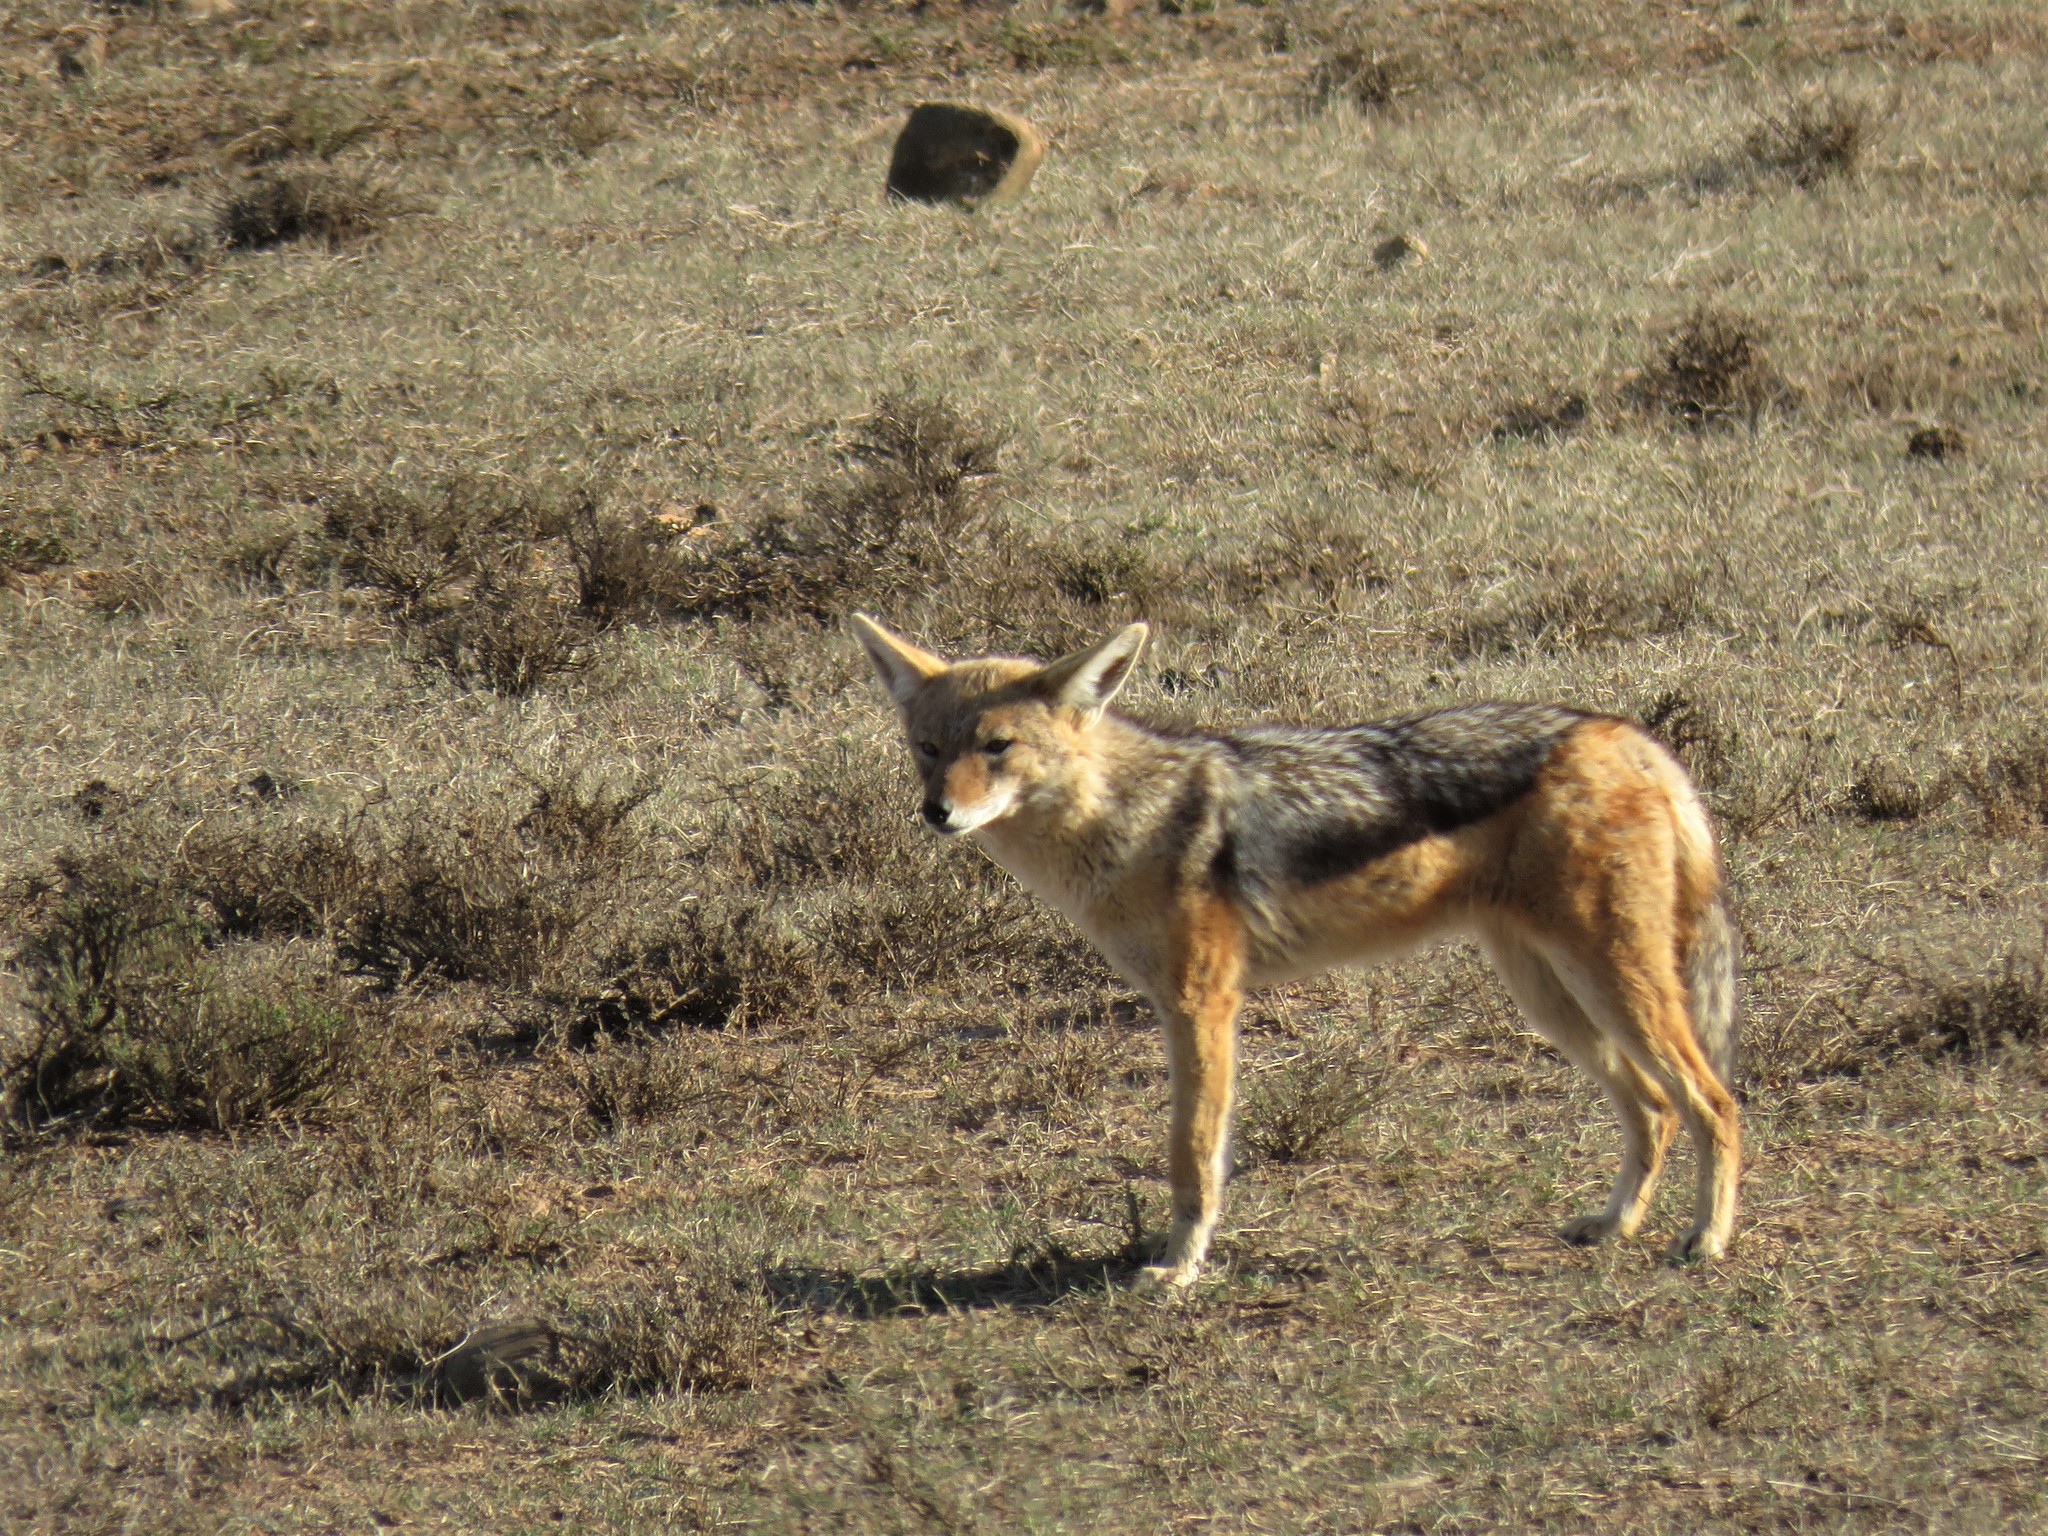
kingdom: Animalia
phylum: Chordata
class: Mammalia
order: Carnivora
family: Canidae
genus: Lupulella
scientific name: Lupulella
